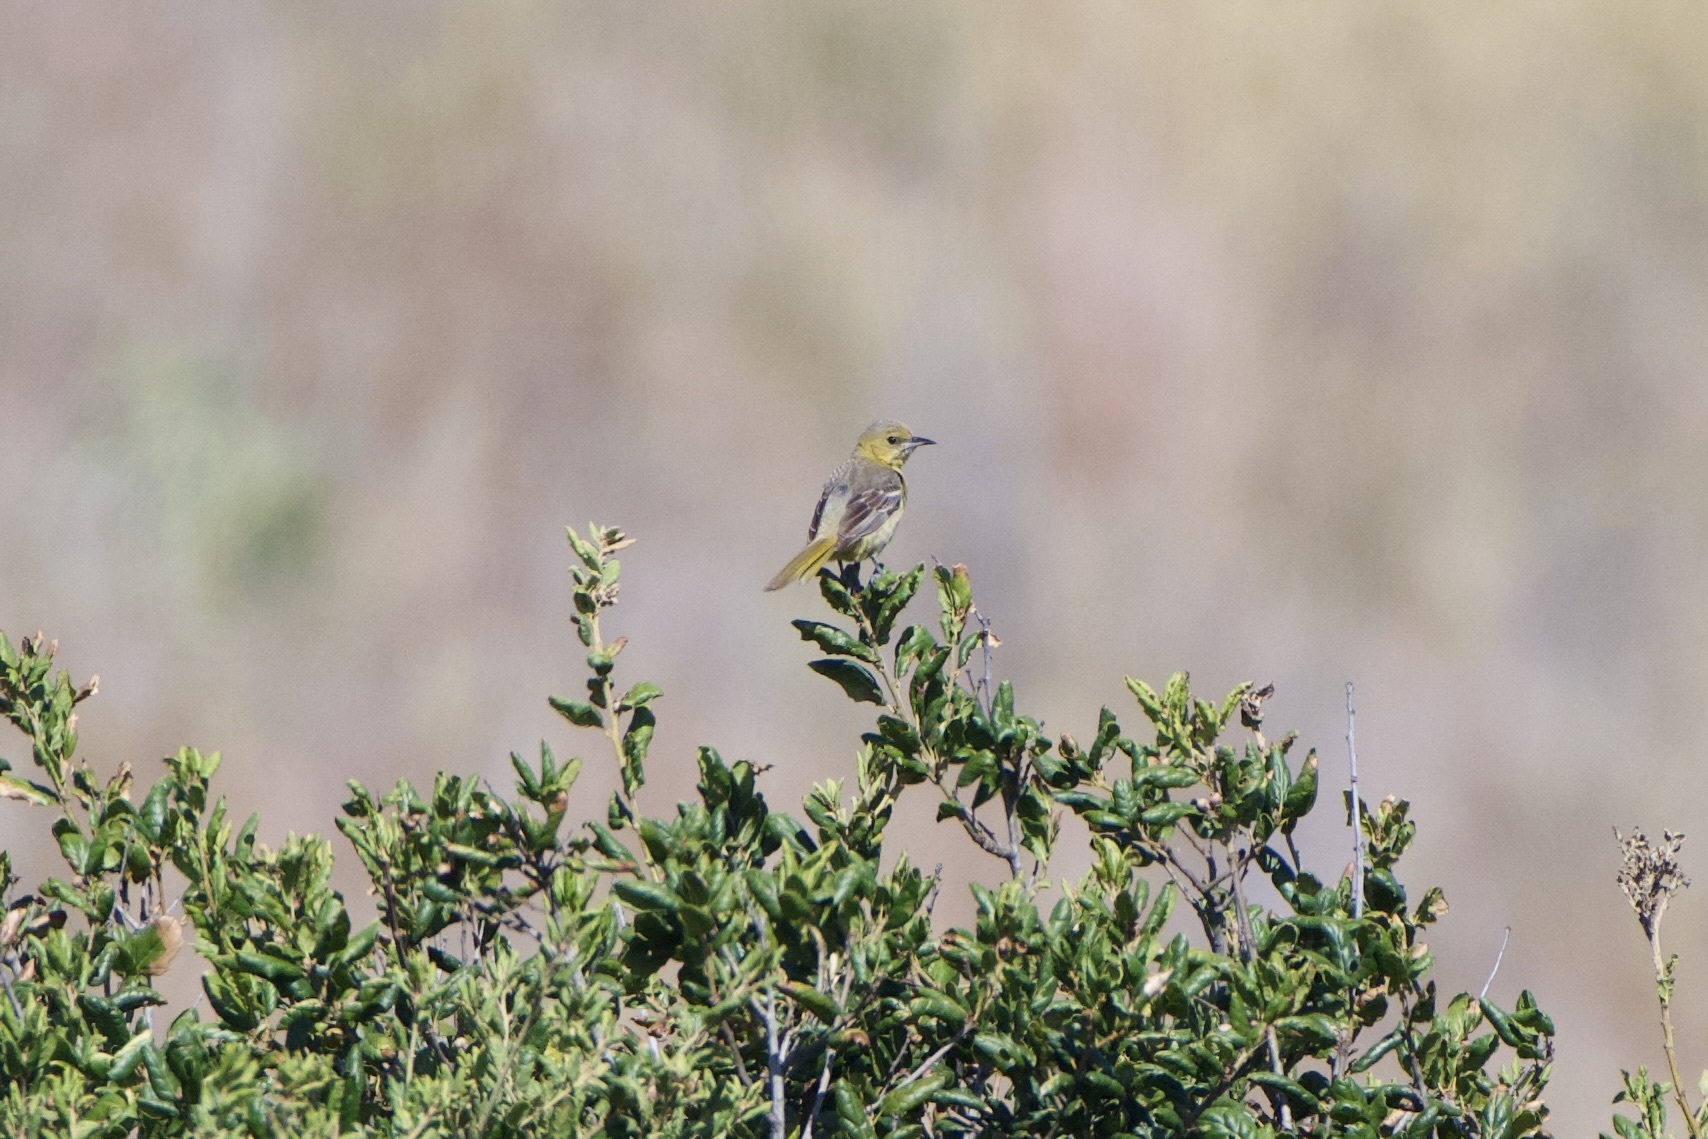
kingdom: Animalia
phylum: Chordata
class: Aves
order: Passeriformes
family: Icteridae
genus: Icterus
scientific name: Icterus cucullatus
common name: Hooded oriole
